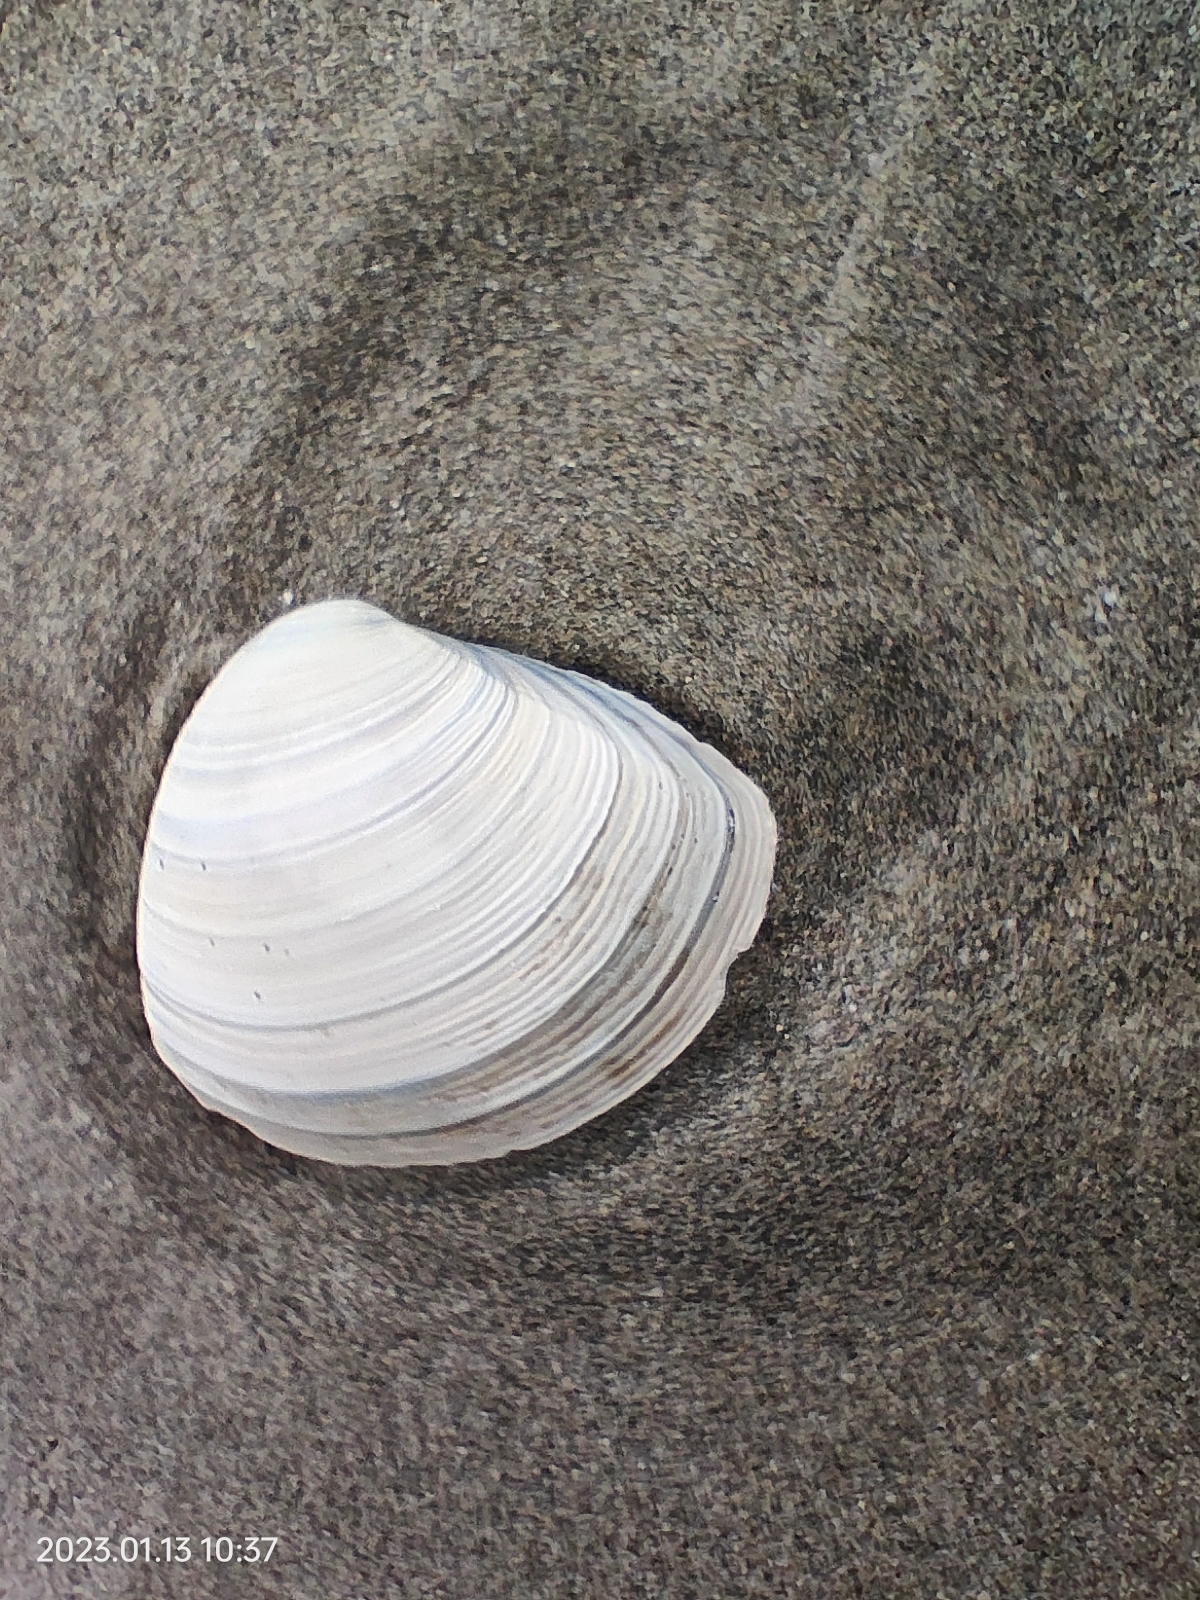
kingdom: Animalia
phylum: Mollusca
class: Bivalvia
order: Venerida
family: Mactridae
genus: Crassula
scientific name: Crassula aequilatera
